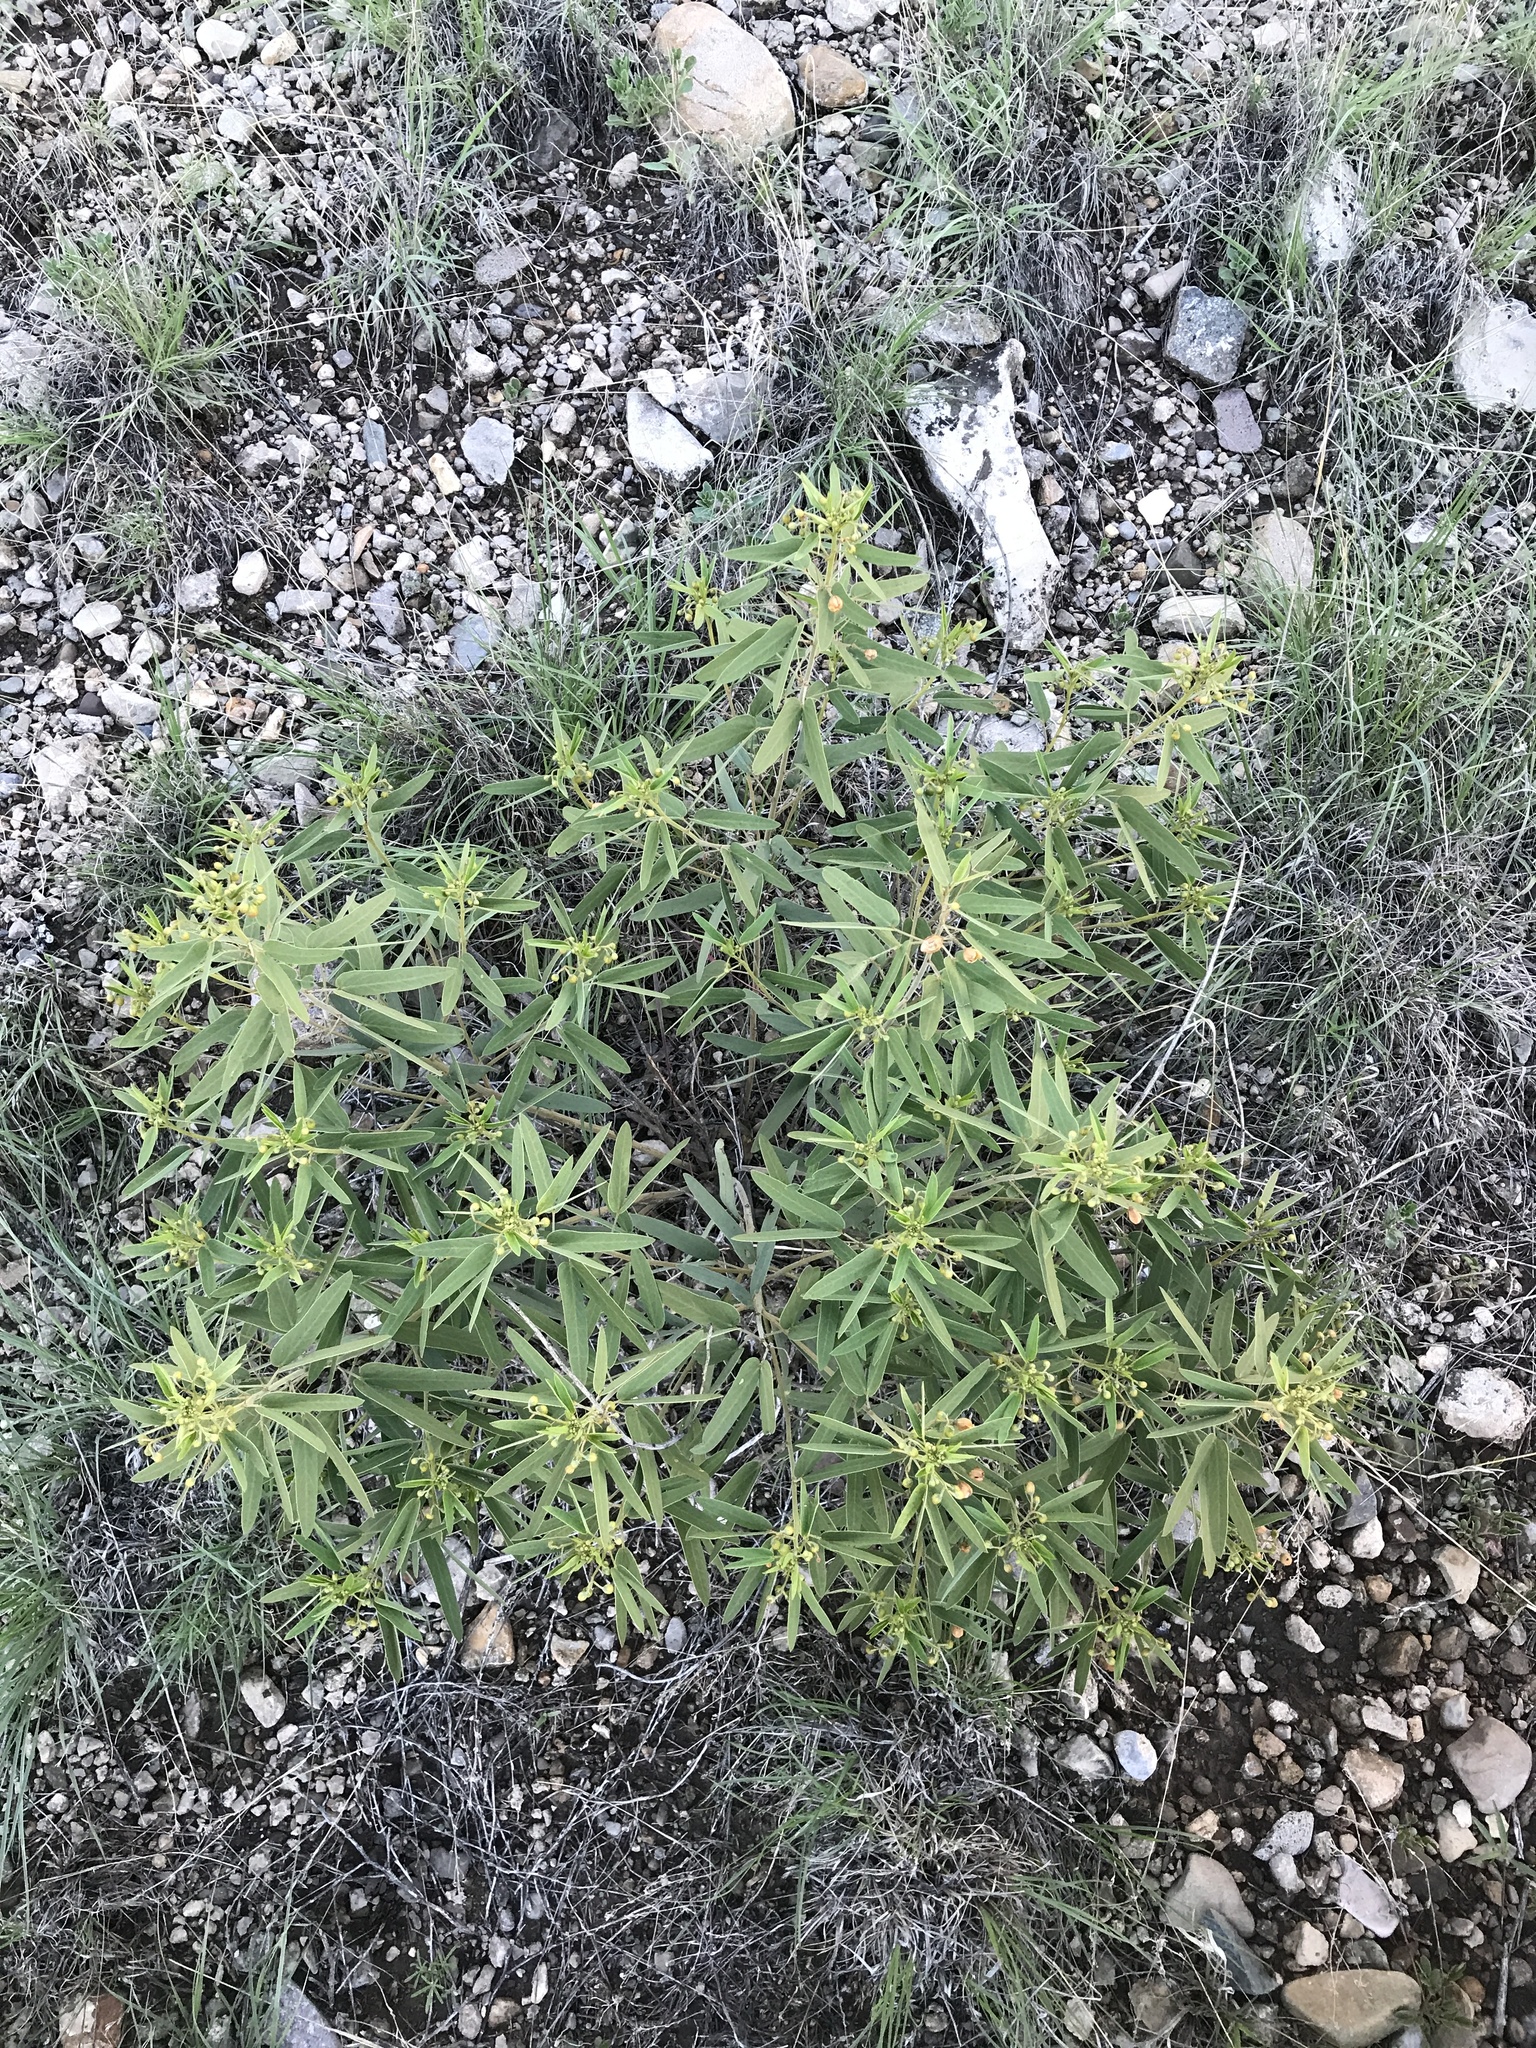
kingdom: Plantae
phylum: Tracheophyta
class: Magnoliopsida
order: Fabales
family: Fabaceae
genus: Senna
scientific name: Senna roemeriana
